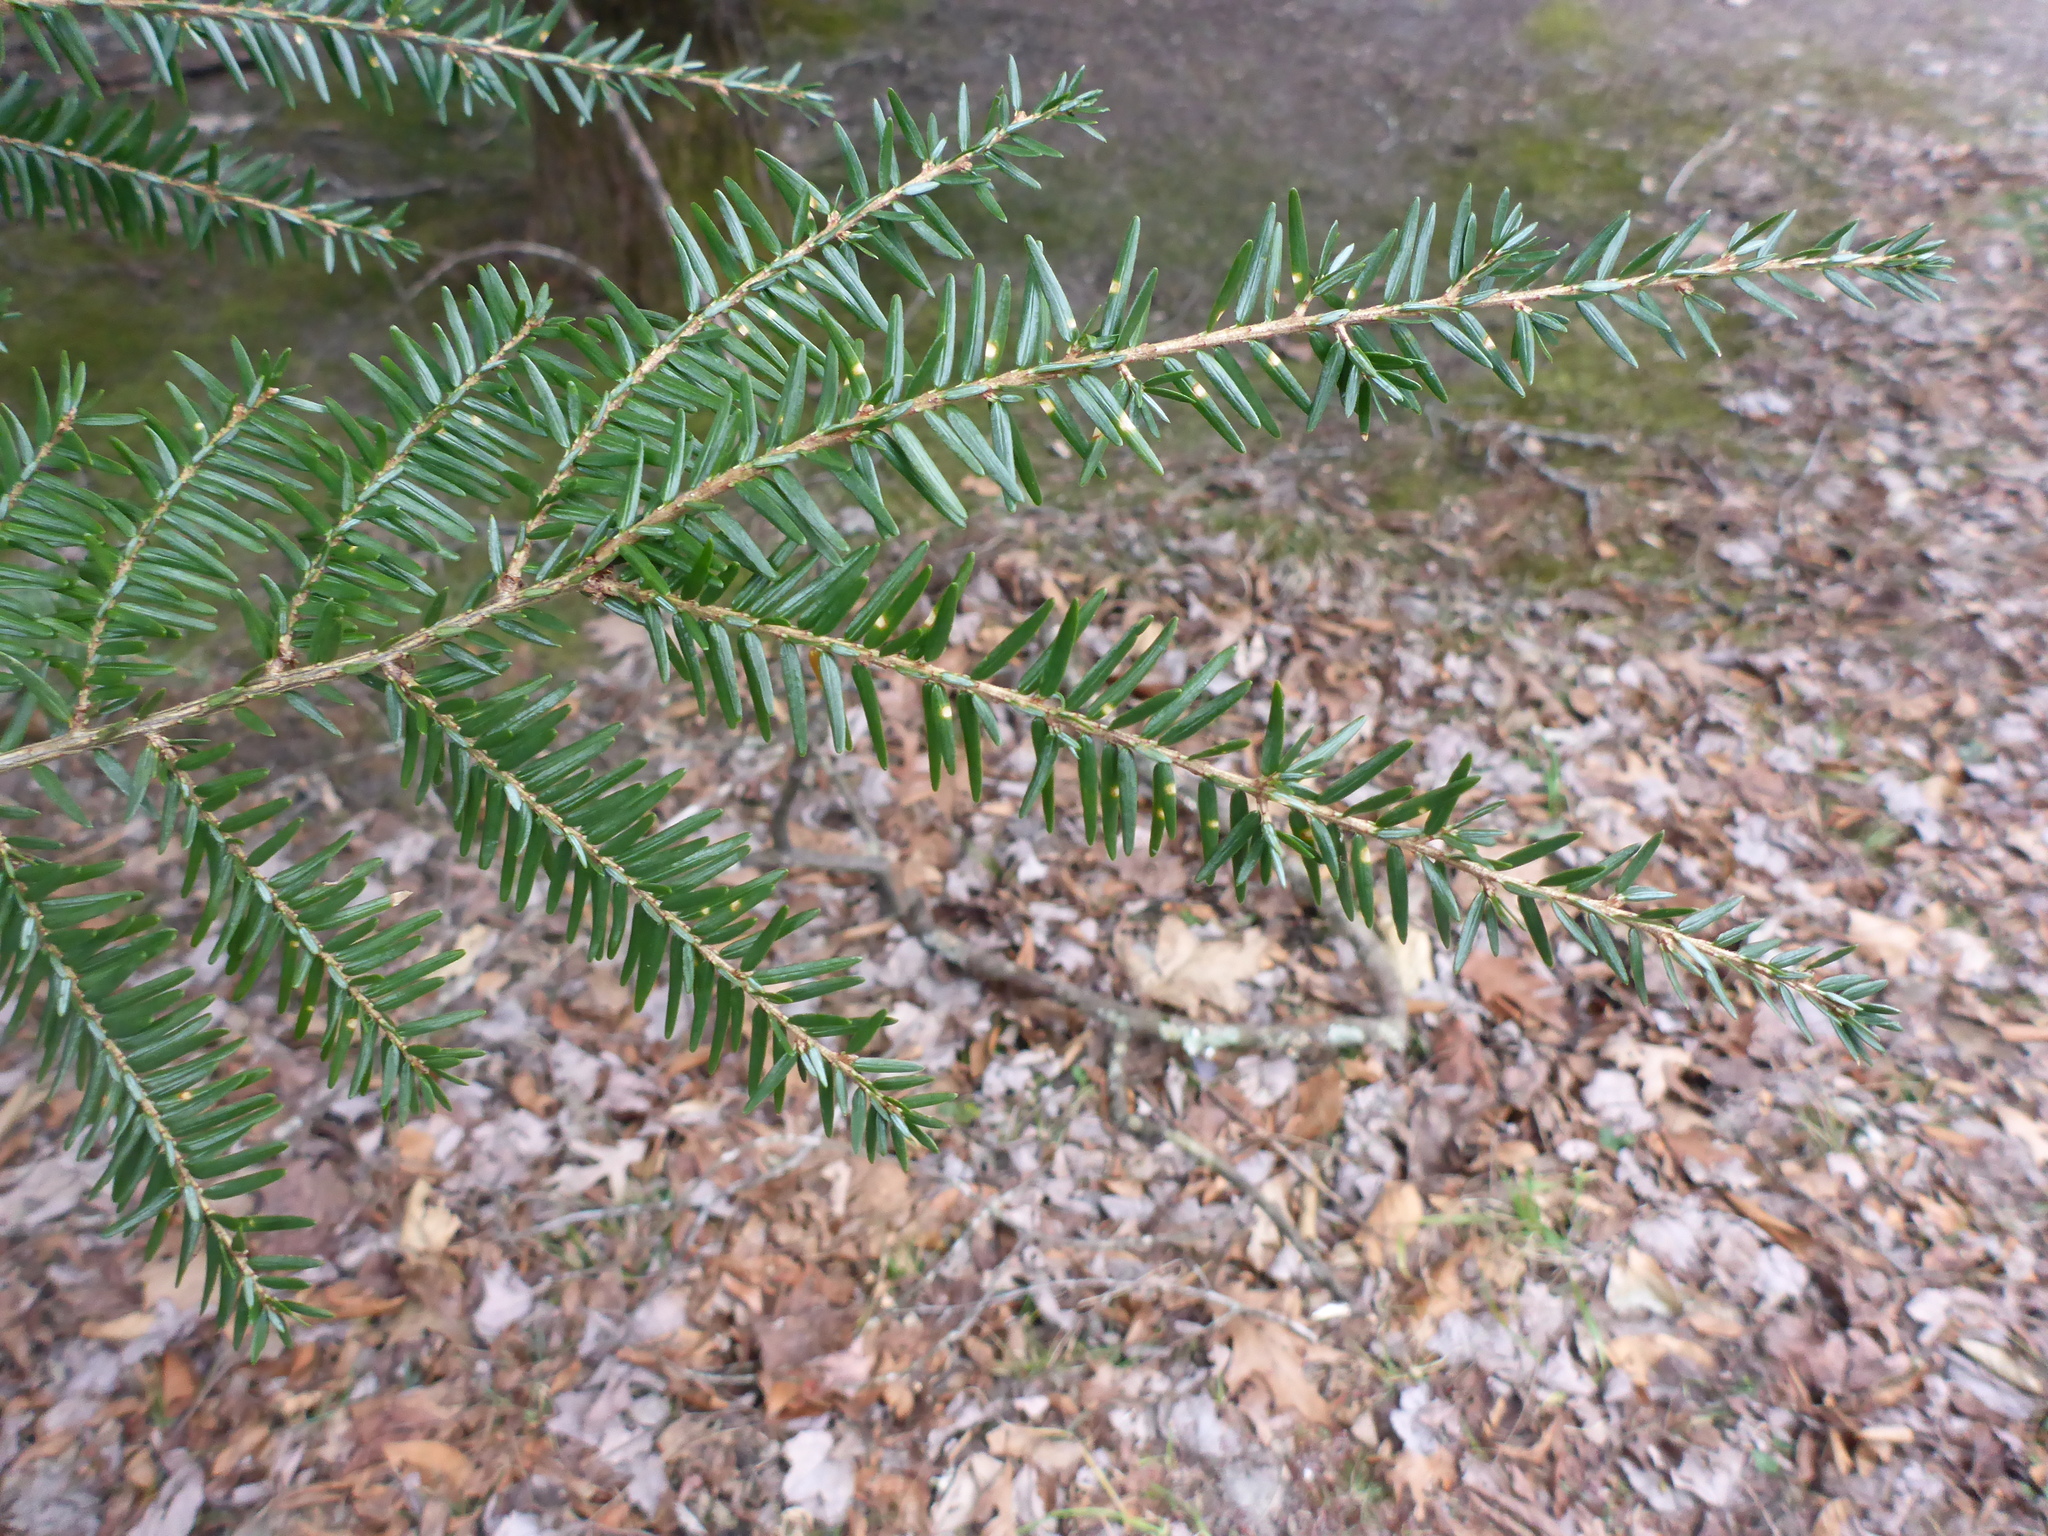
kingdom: Plantae
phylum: Tracheophyta
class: Pinopsida
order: Pinales
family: Pinaceae
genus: Tsuga
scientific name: Tsuga canadensis
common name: Eastern hemlock
